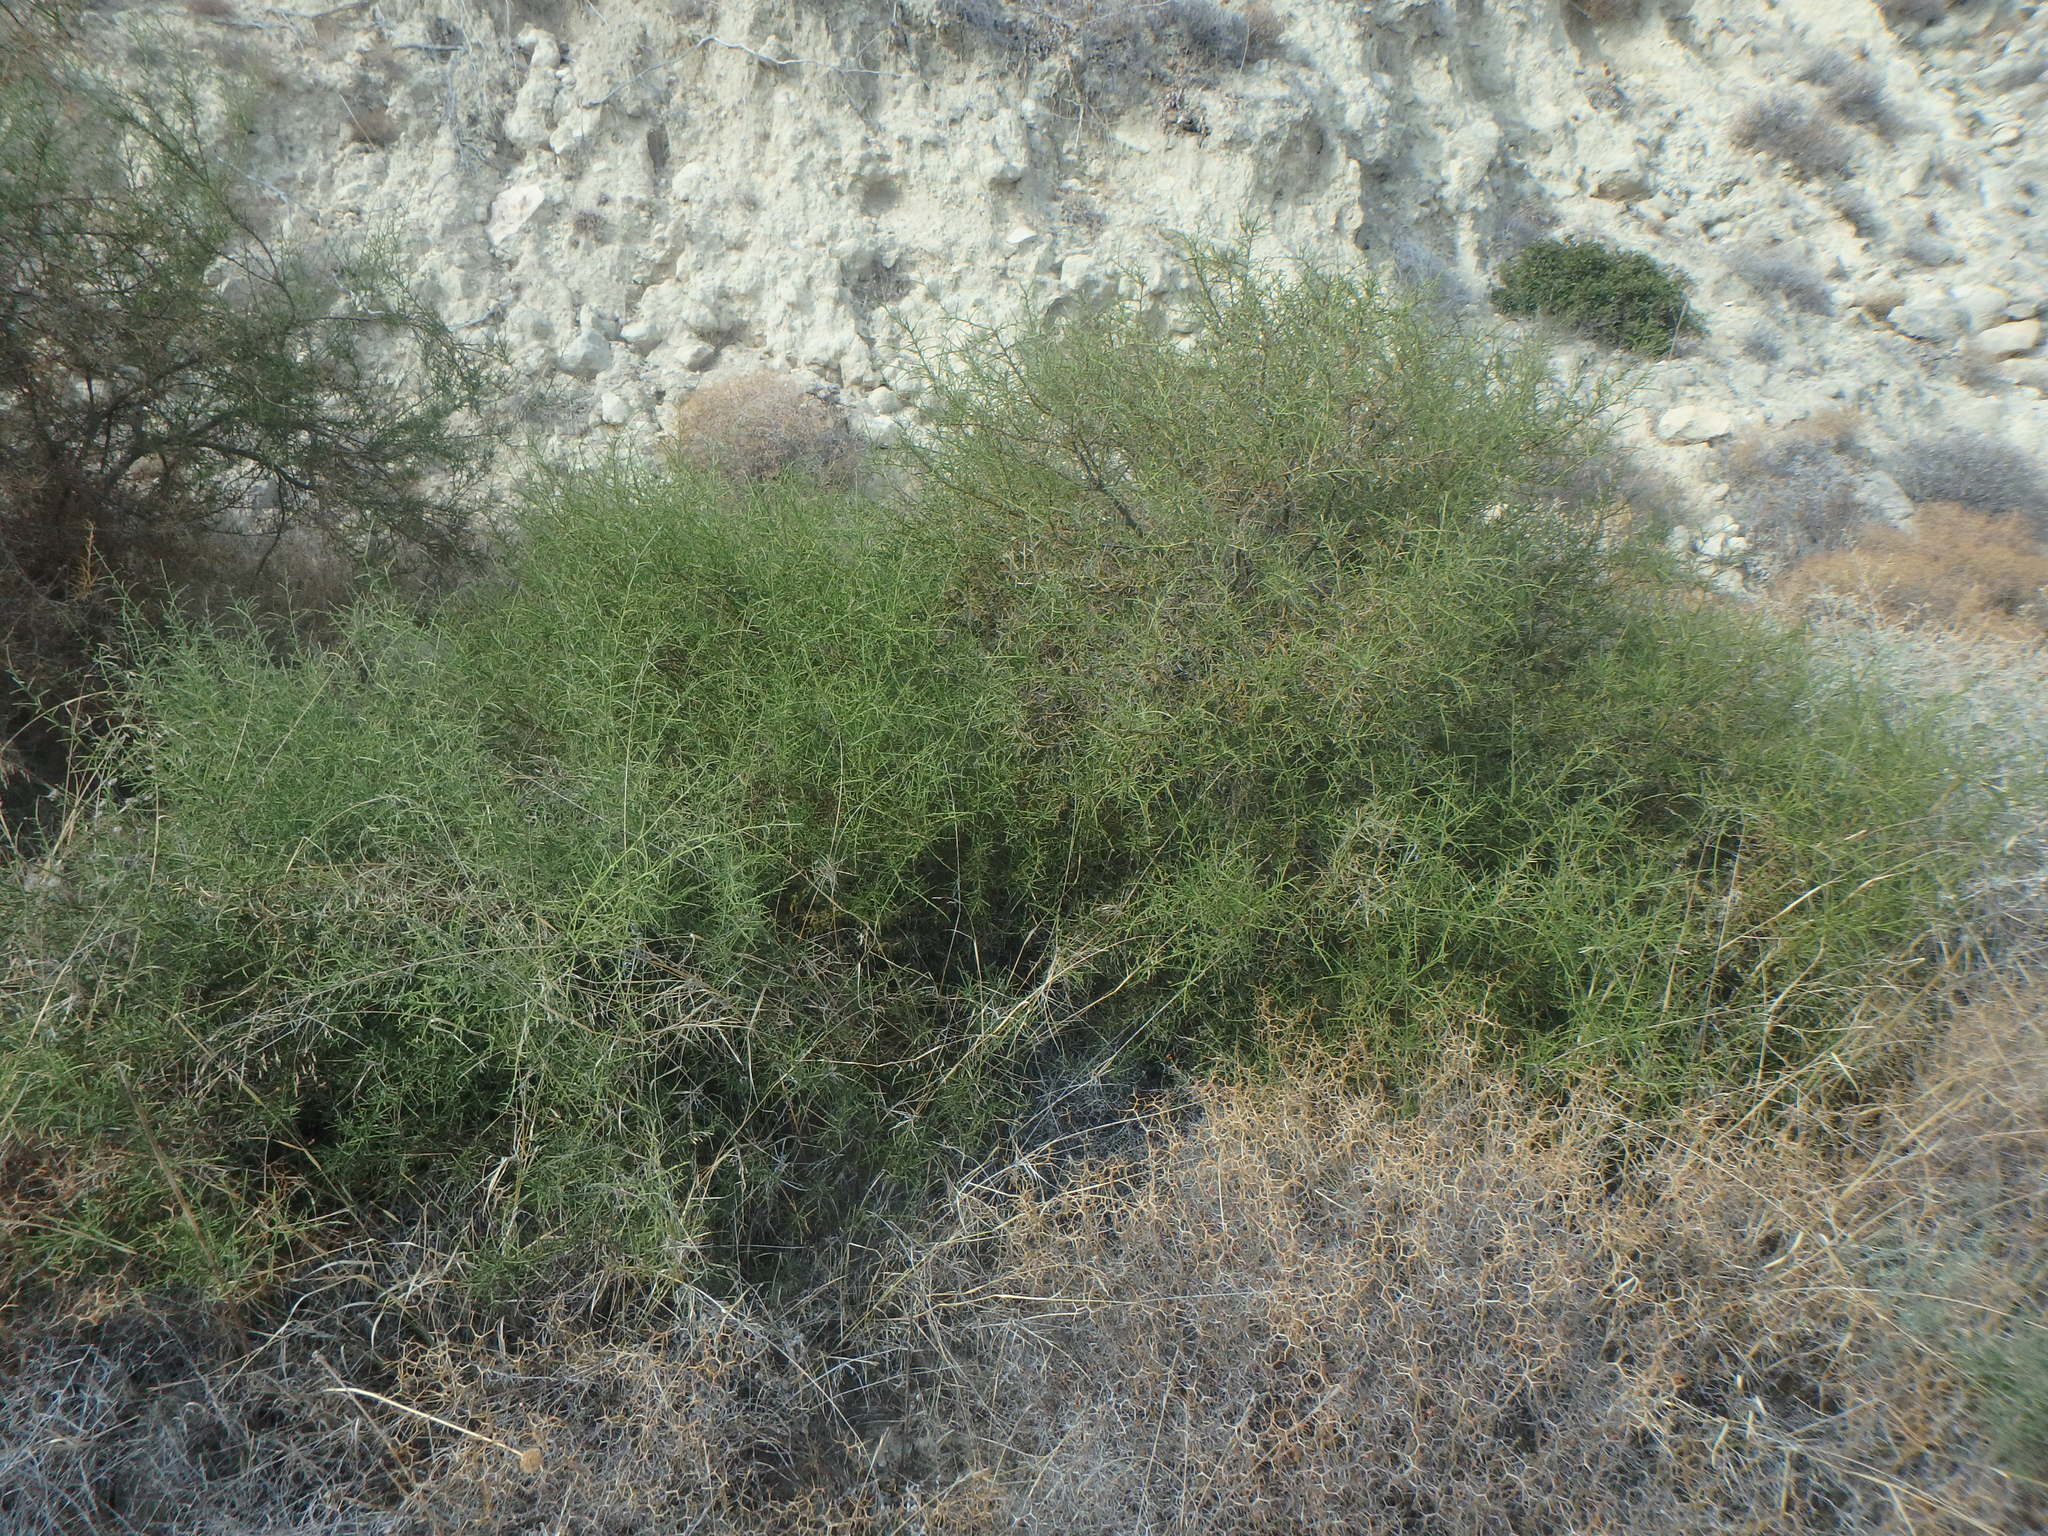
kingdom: Plantae
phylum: Tracheophyta
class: Magnoliopsida
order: Fabales
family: Fabaceae
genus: Genista
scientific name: Genista fasselata
